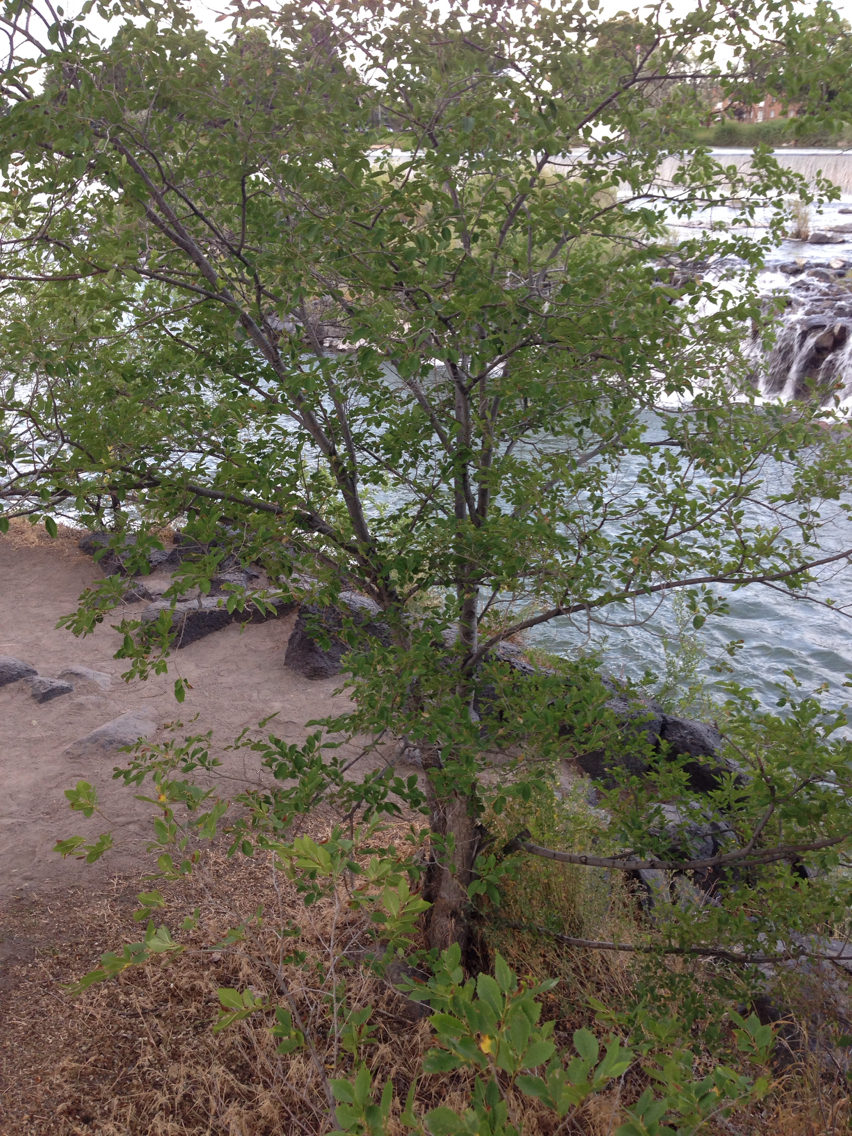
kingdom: Plantae
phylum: Tracheophyta
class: Magnoliopsida
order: Rosales
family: Ulmaceae
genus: Ulmus
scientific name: Ulmus parvifolia
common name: Chinese elm
